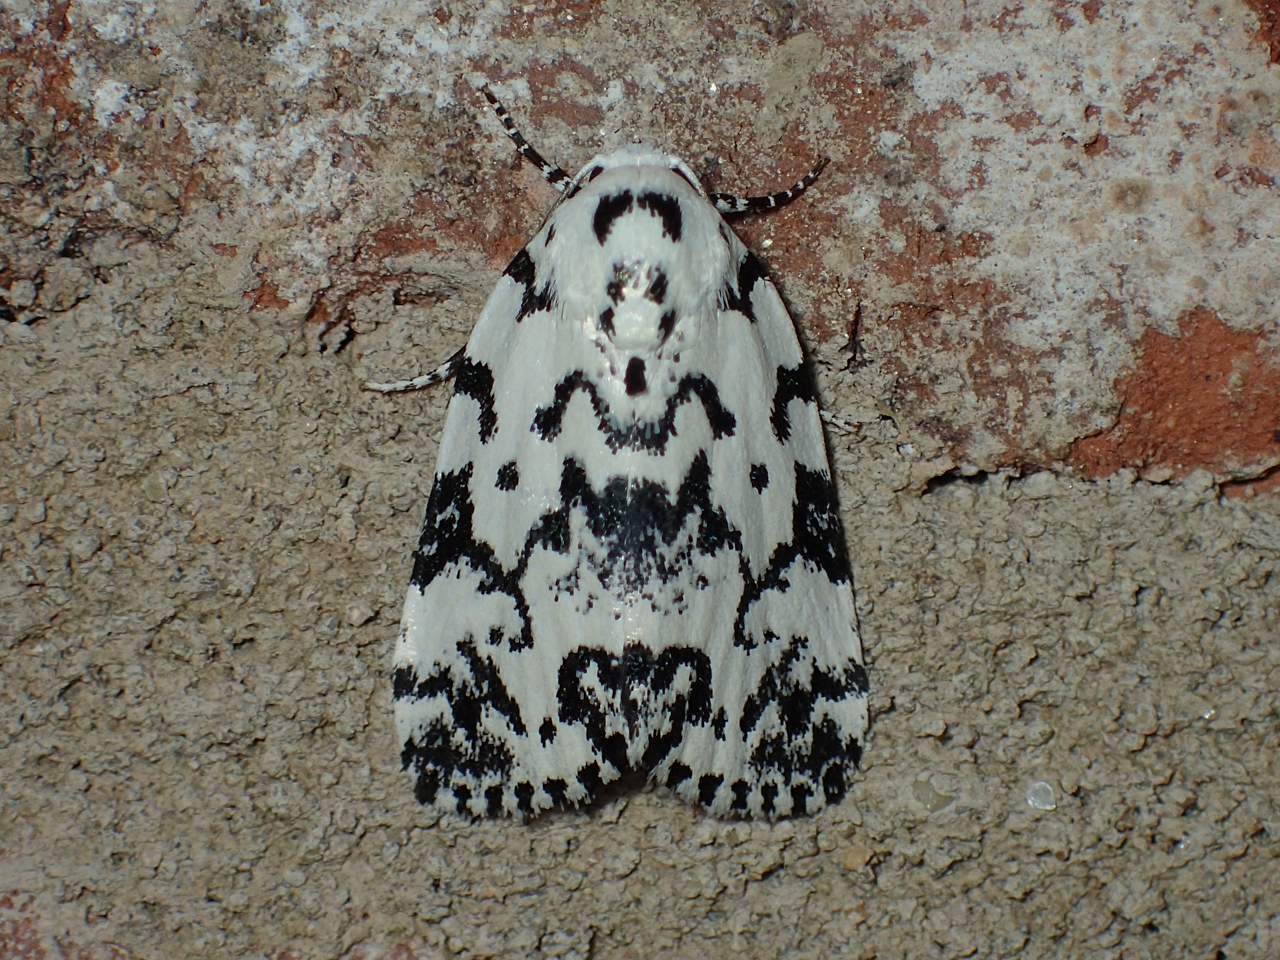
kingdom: Animalia
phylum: Arthropoda
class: Insecta
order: Lepidoptera
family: Noctuidae
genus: Polygrammate
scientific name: Polygrammate hebraeicum
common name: Hebrew moth
